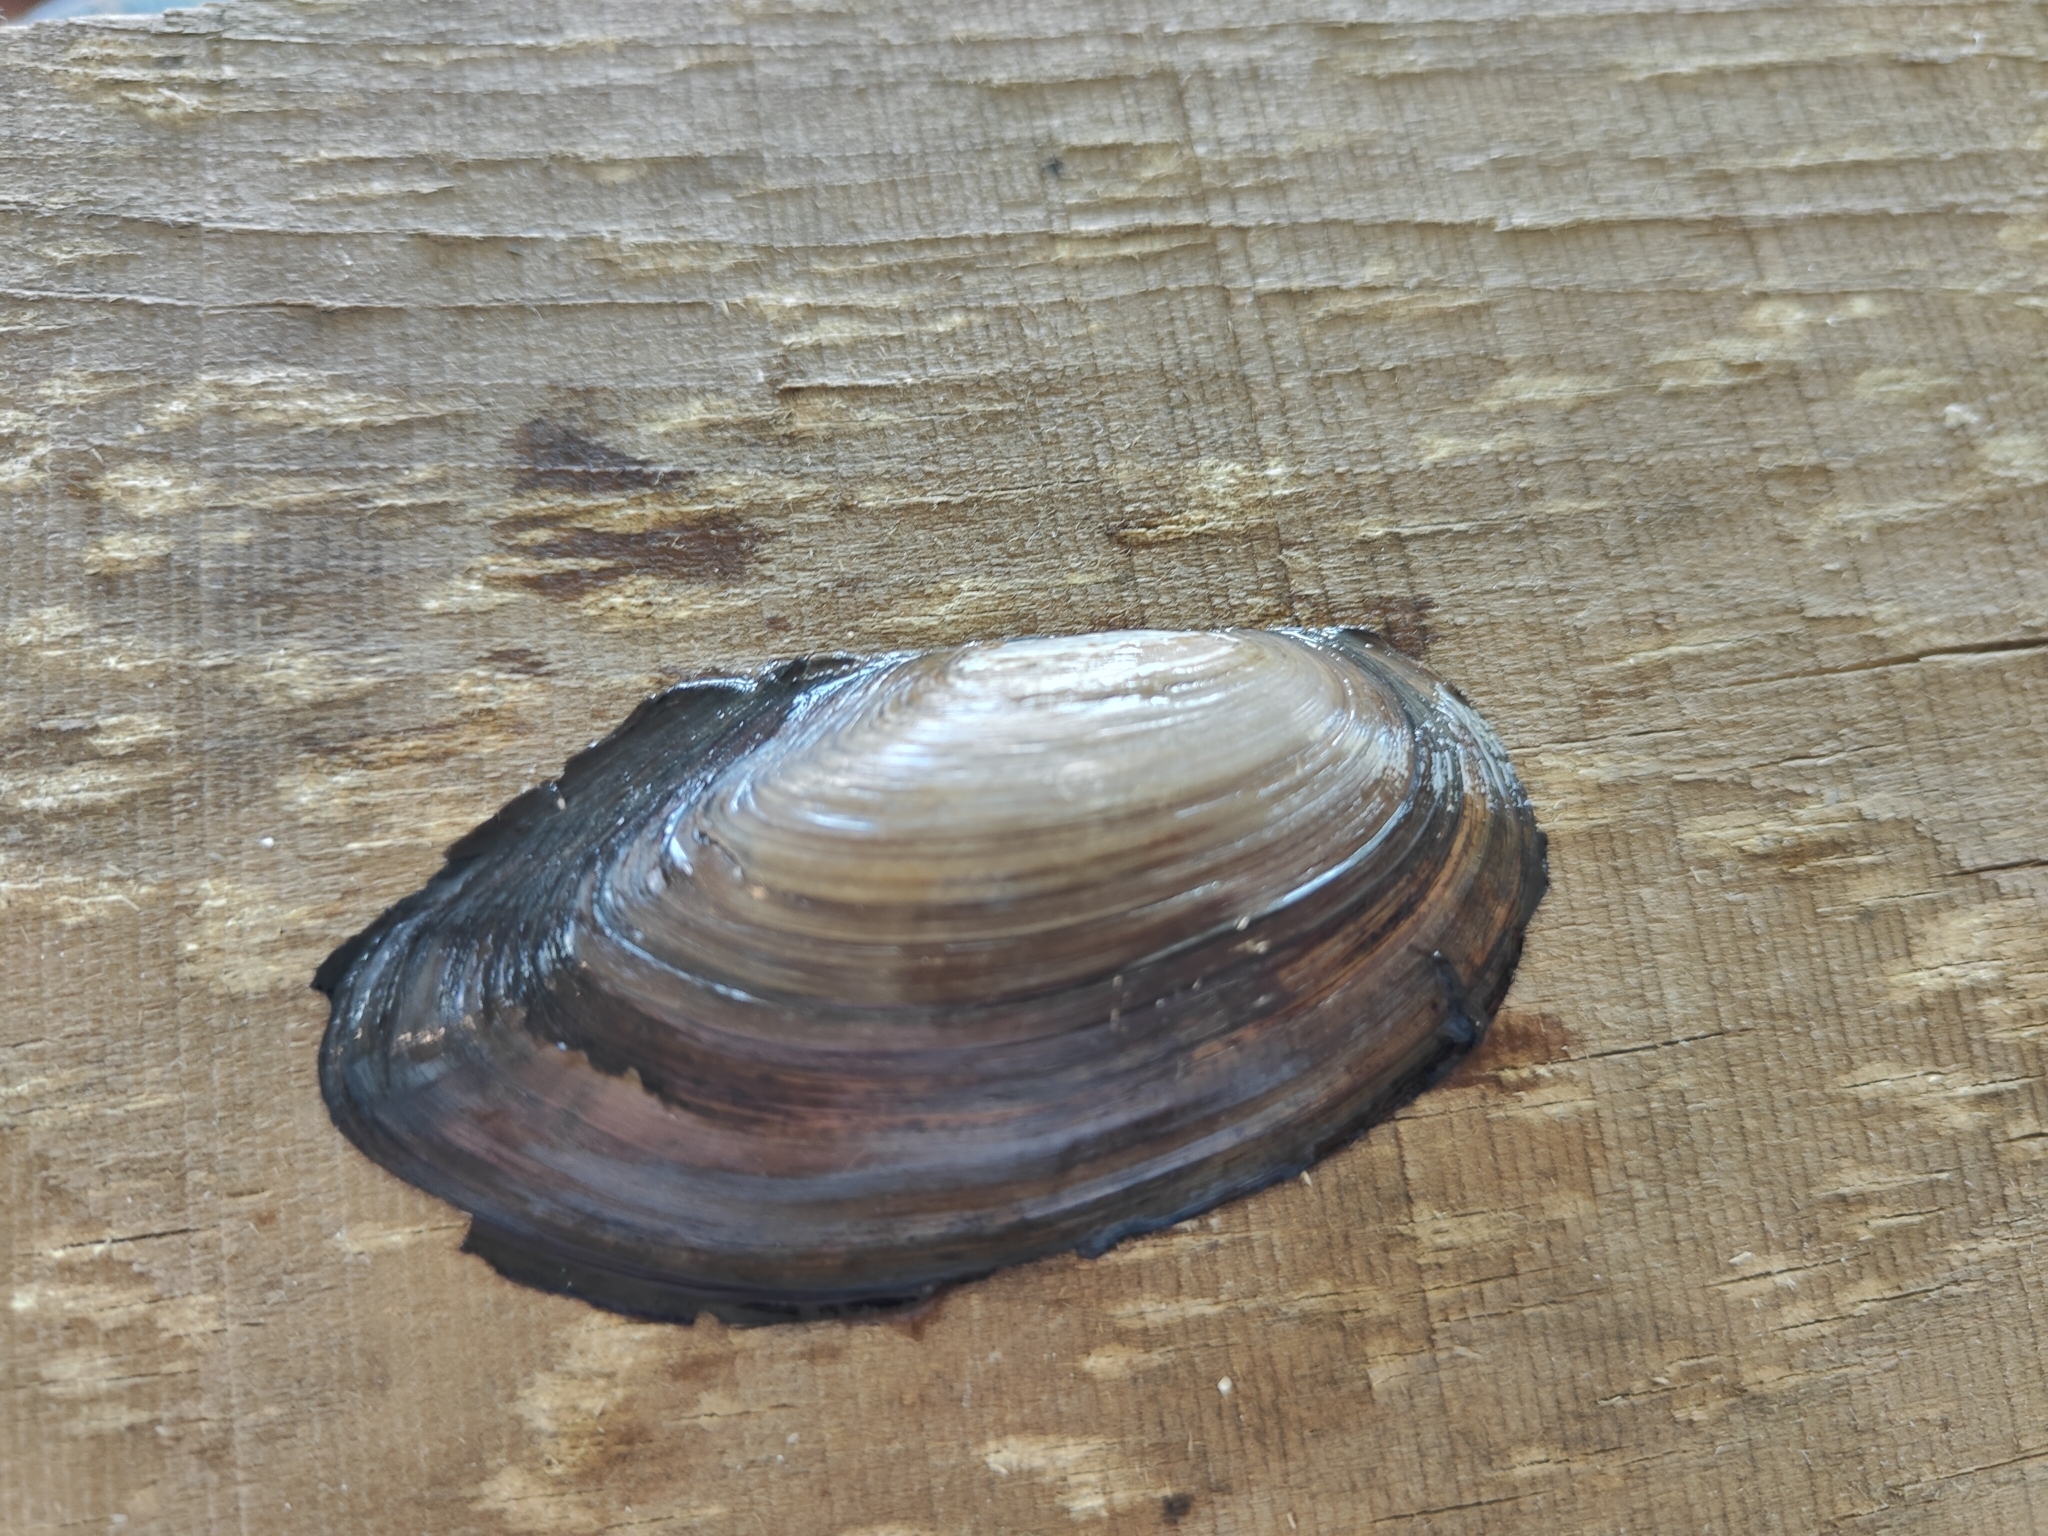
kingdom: Animalia
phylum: Mollusca
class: Bivalvia
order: Unionida
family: Unionidae
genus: Utterbackia
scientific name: Utterbackia imbecillis
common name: Paper pondshell
